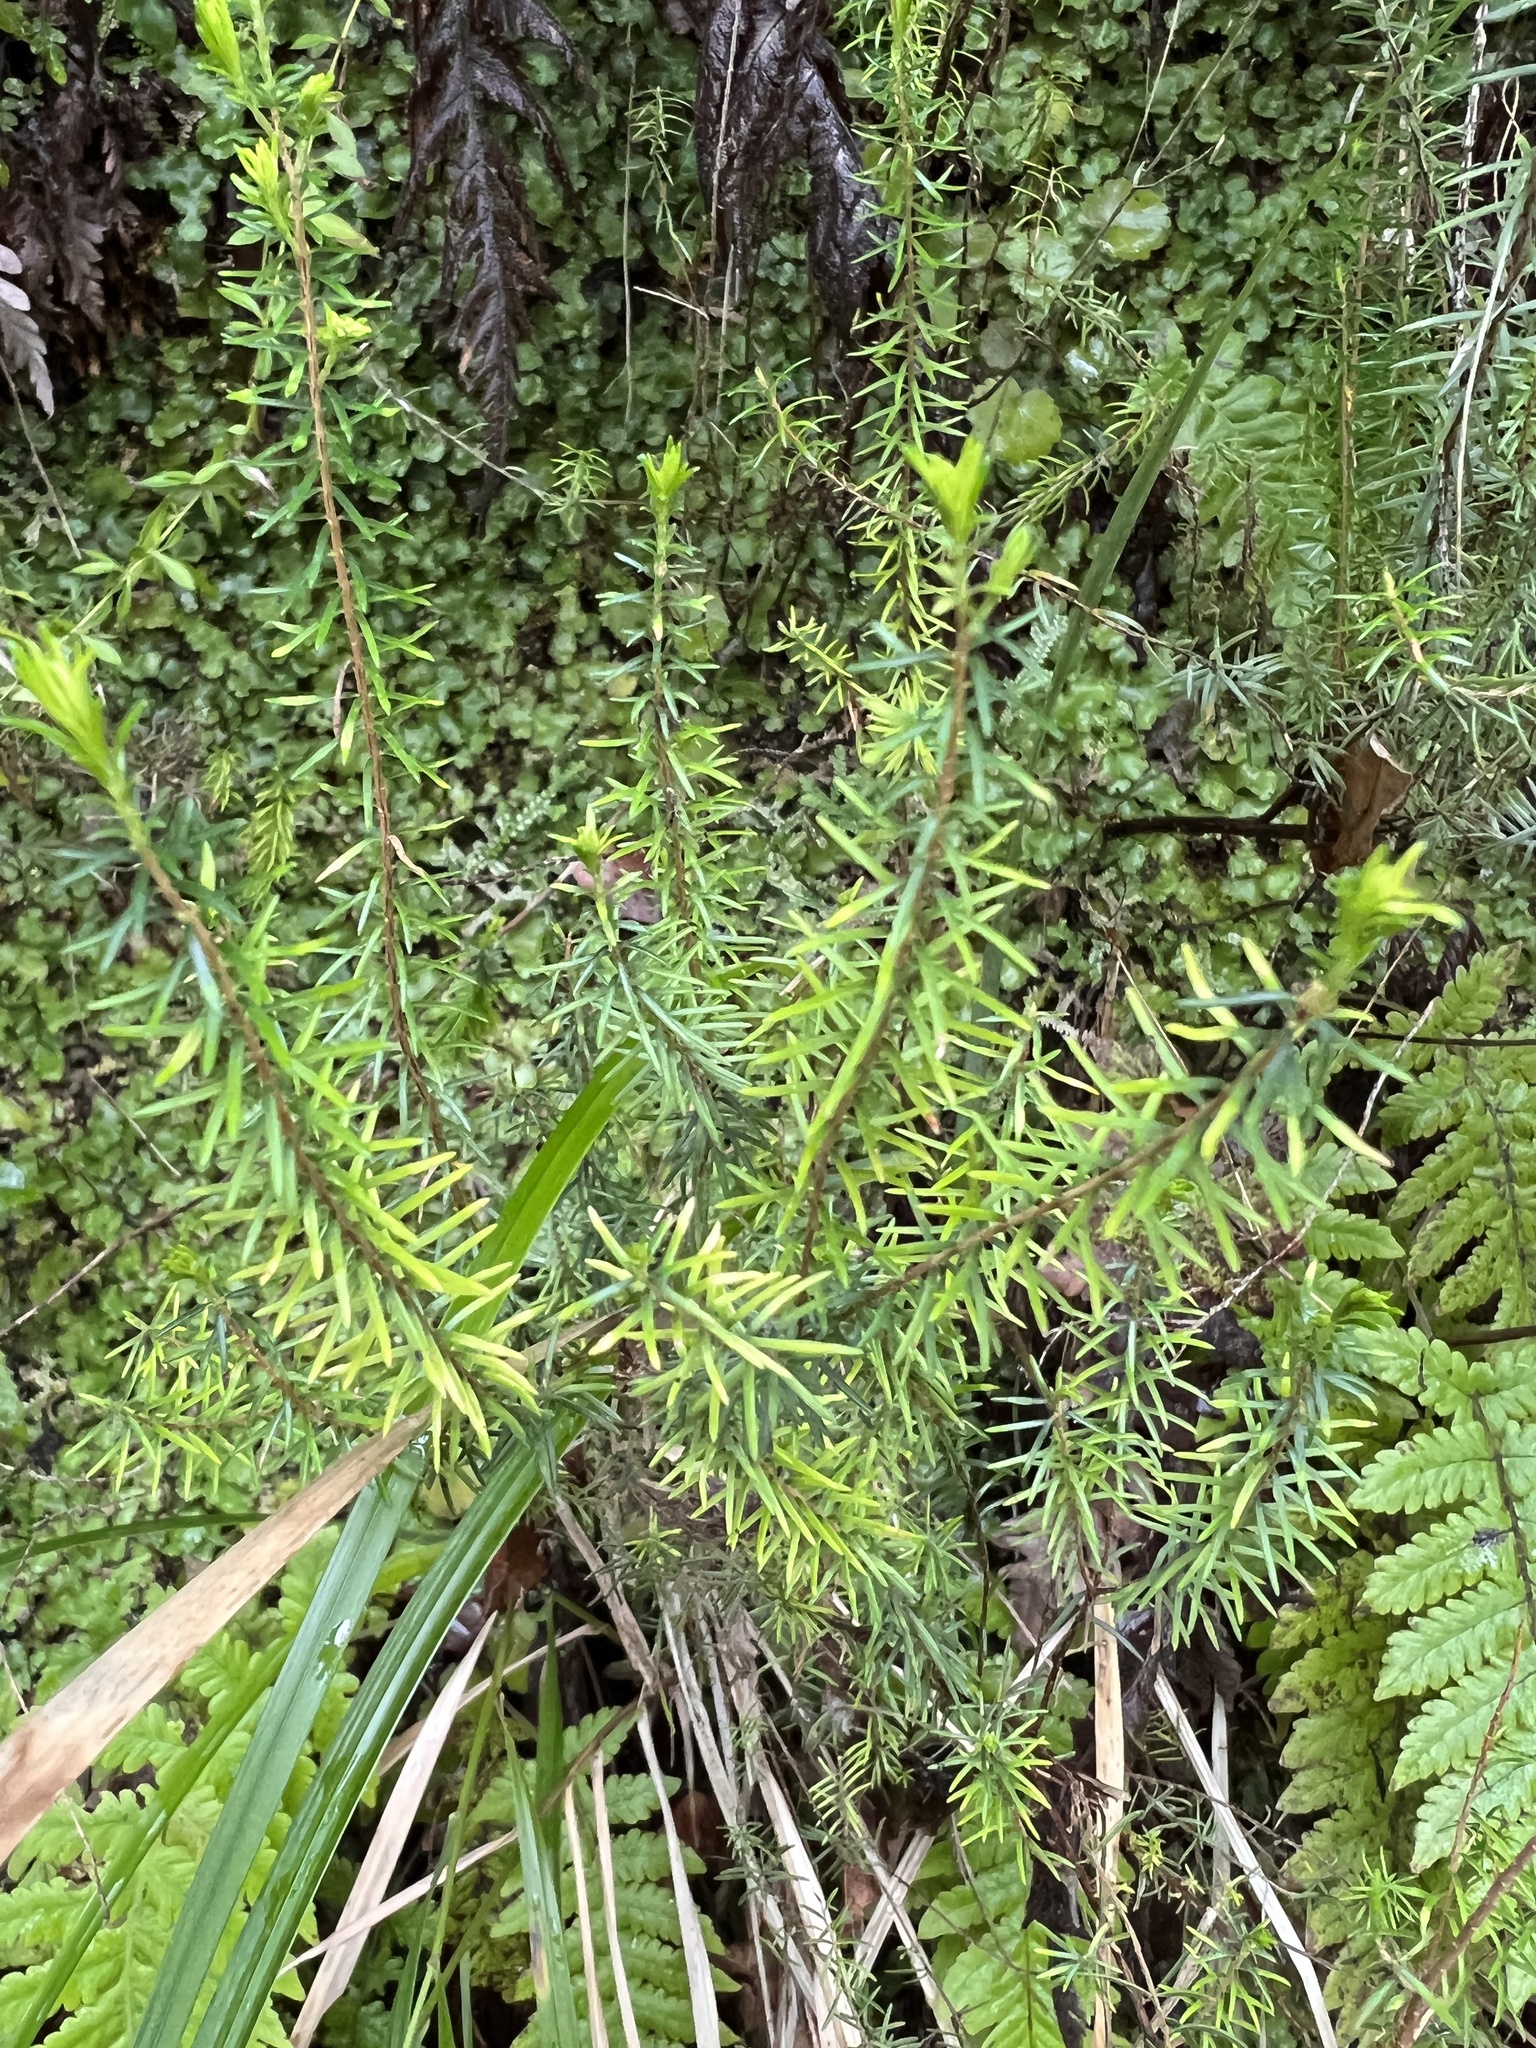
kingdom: Plantae
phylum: Tracheophyta
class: Magnoliopsida
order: Ericales
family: Ericaceae
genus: Erica
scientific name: Erica canariensis
